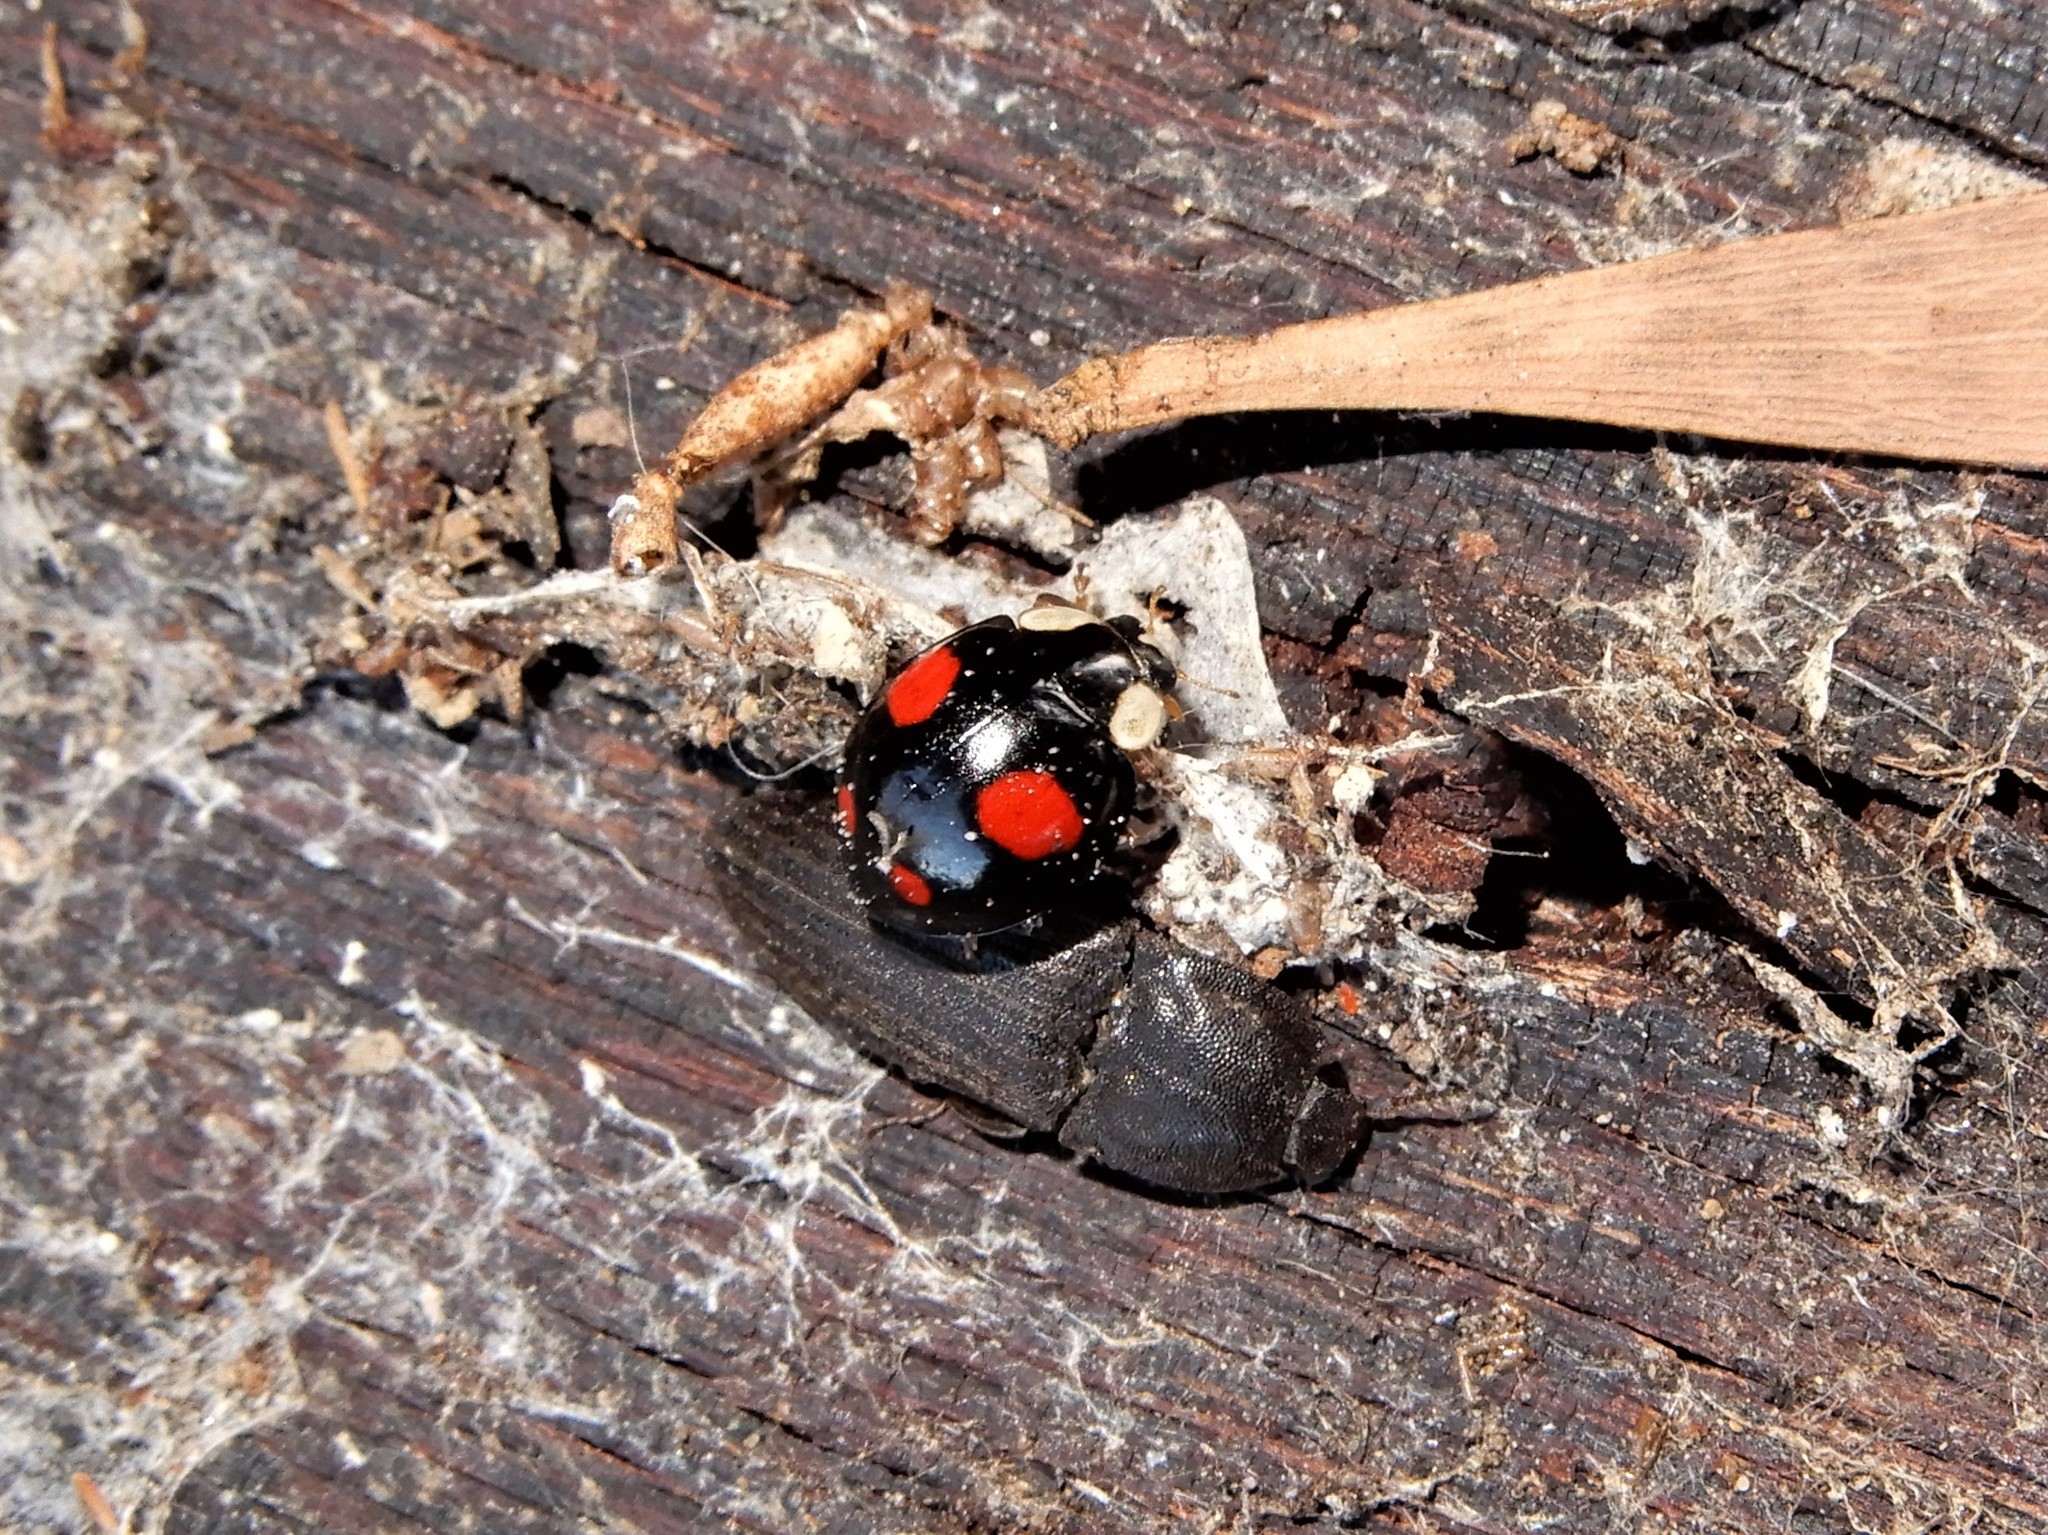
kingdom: Animalia
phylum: Arthropoda
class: Insecta
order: Coleoptera
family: Coccinellidae
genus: Harmonia
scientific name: Harmonia axyridis
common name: Harlequin ladybird
